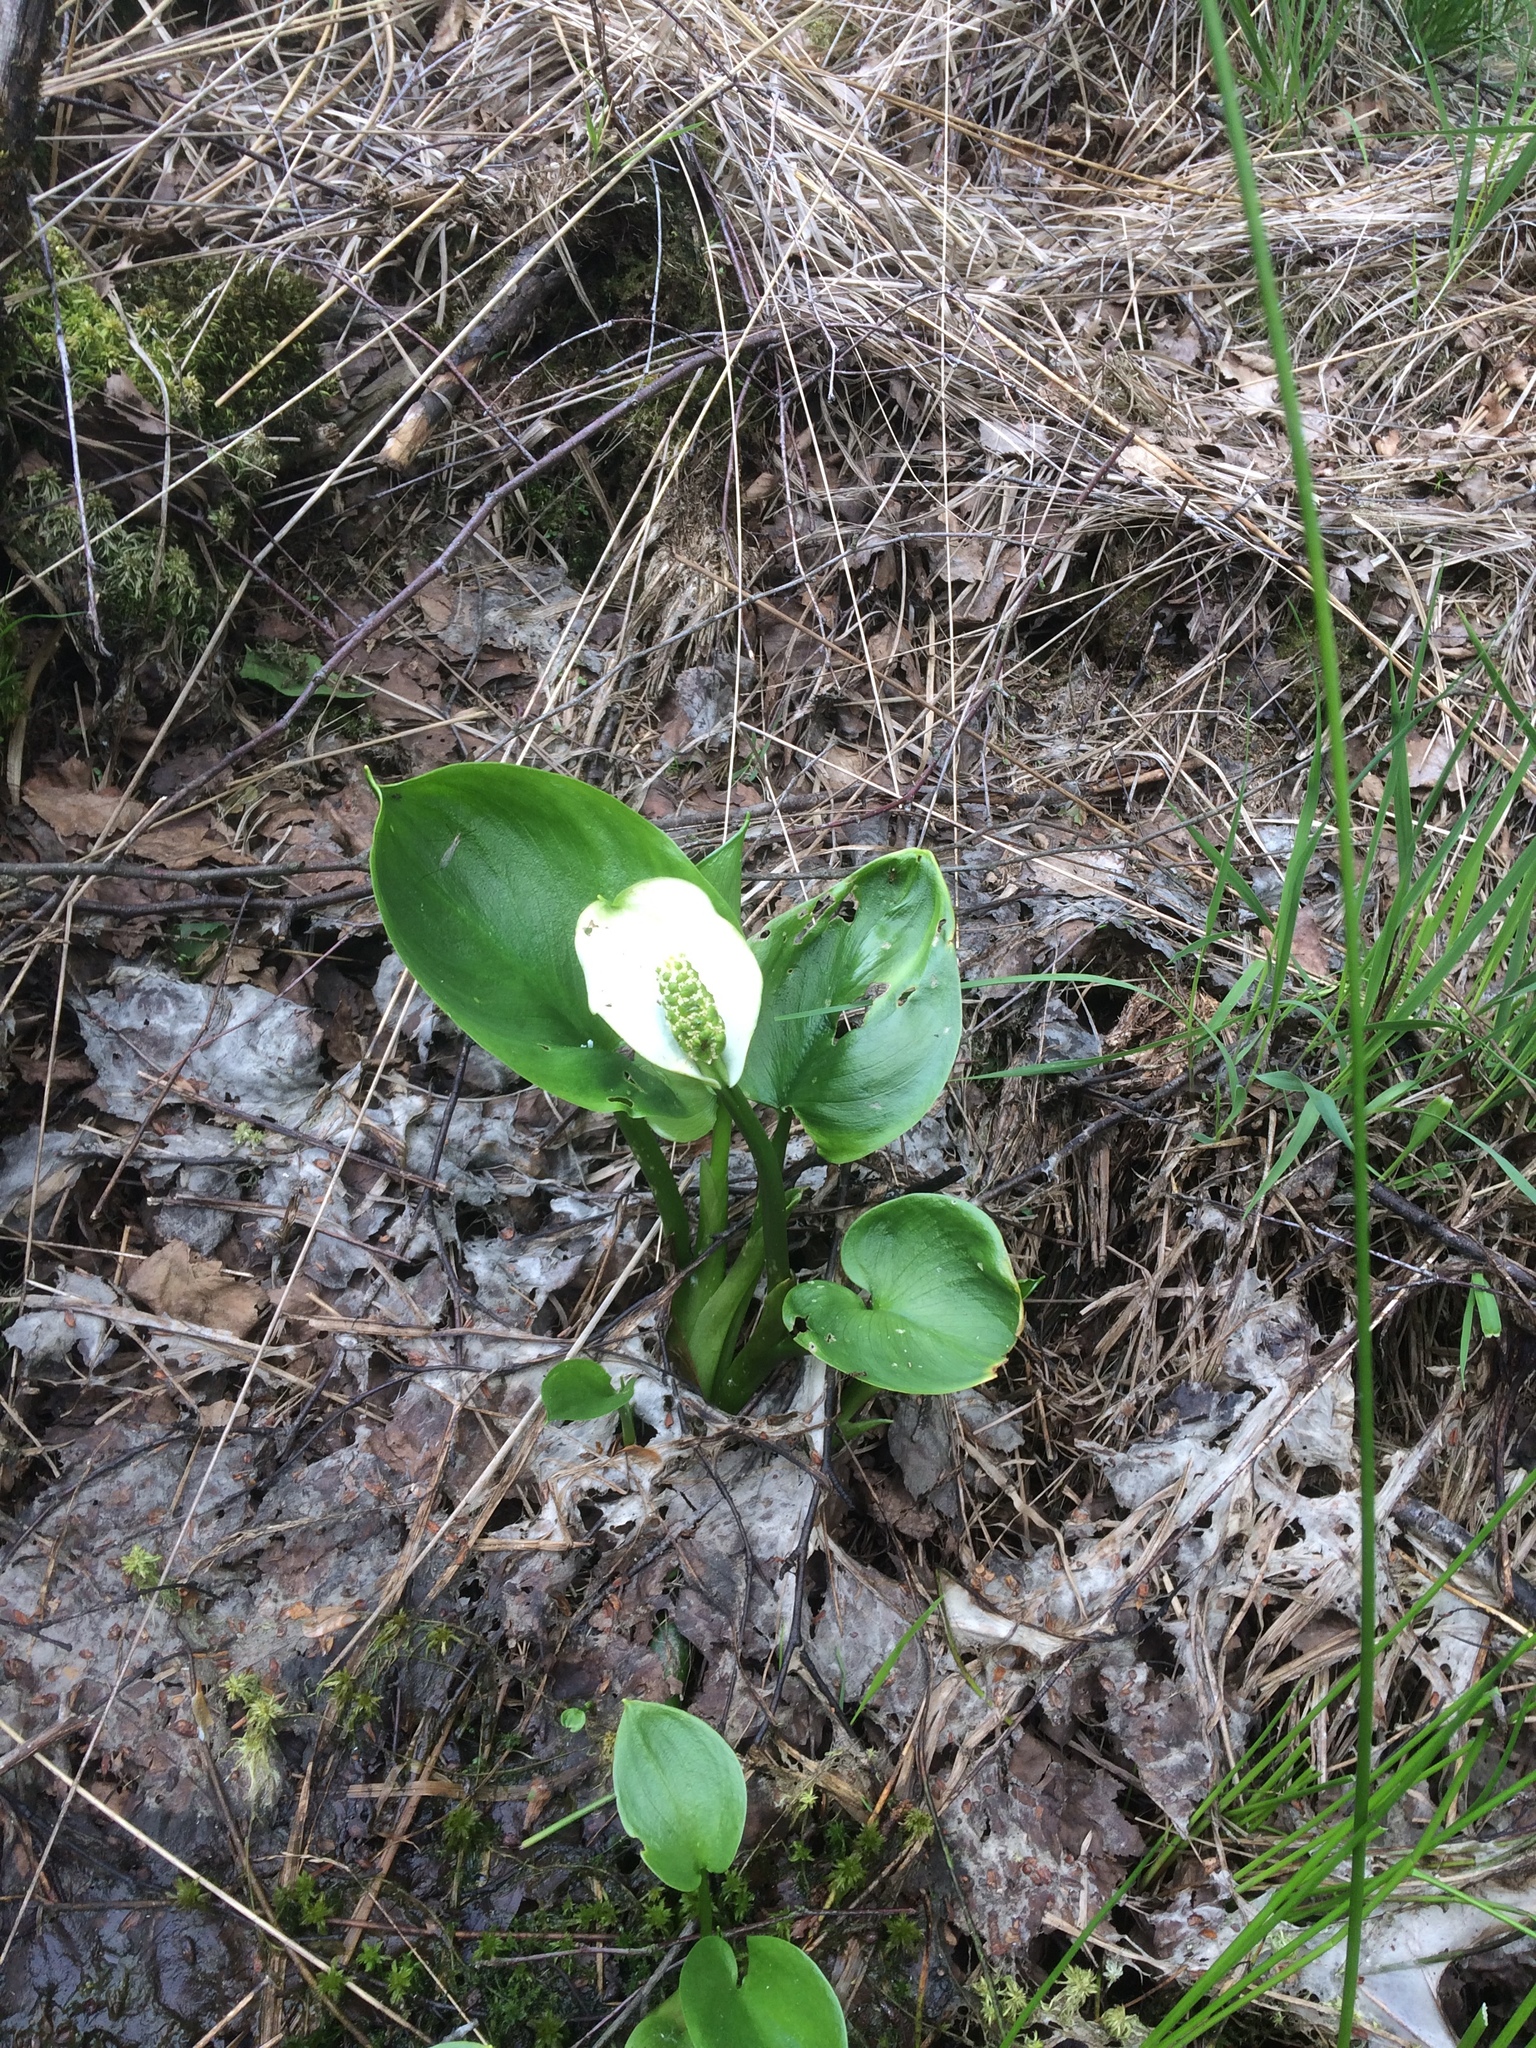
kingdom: Plantae
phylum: Tracheophyta
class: Liliopsida
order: Alismatales
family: Araceae
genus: Calla
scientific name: Calla palustris
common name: Bog arum
